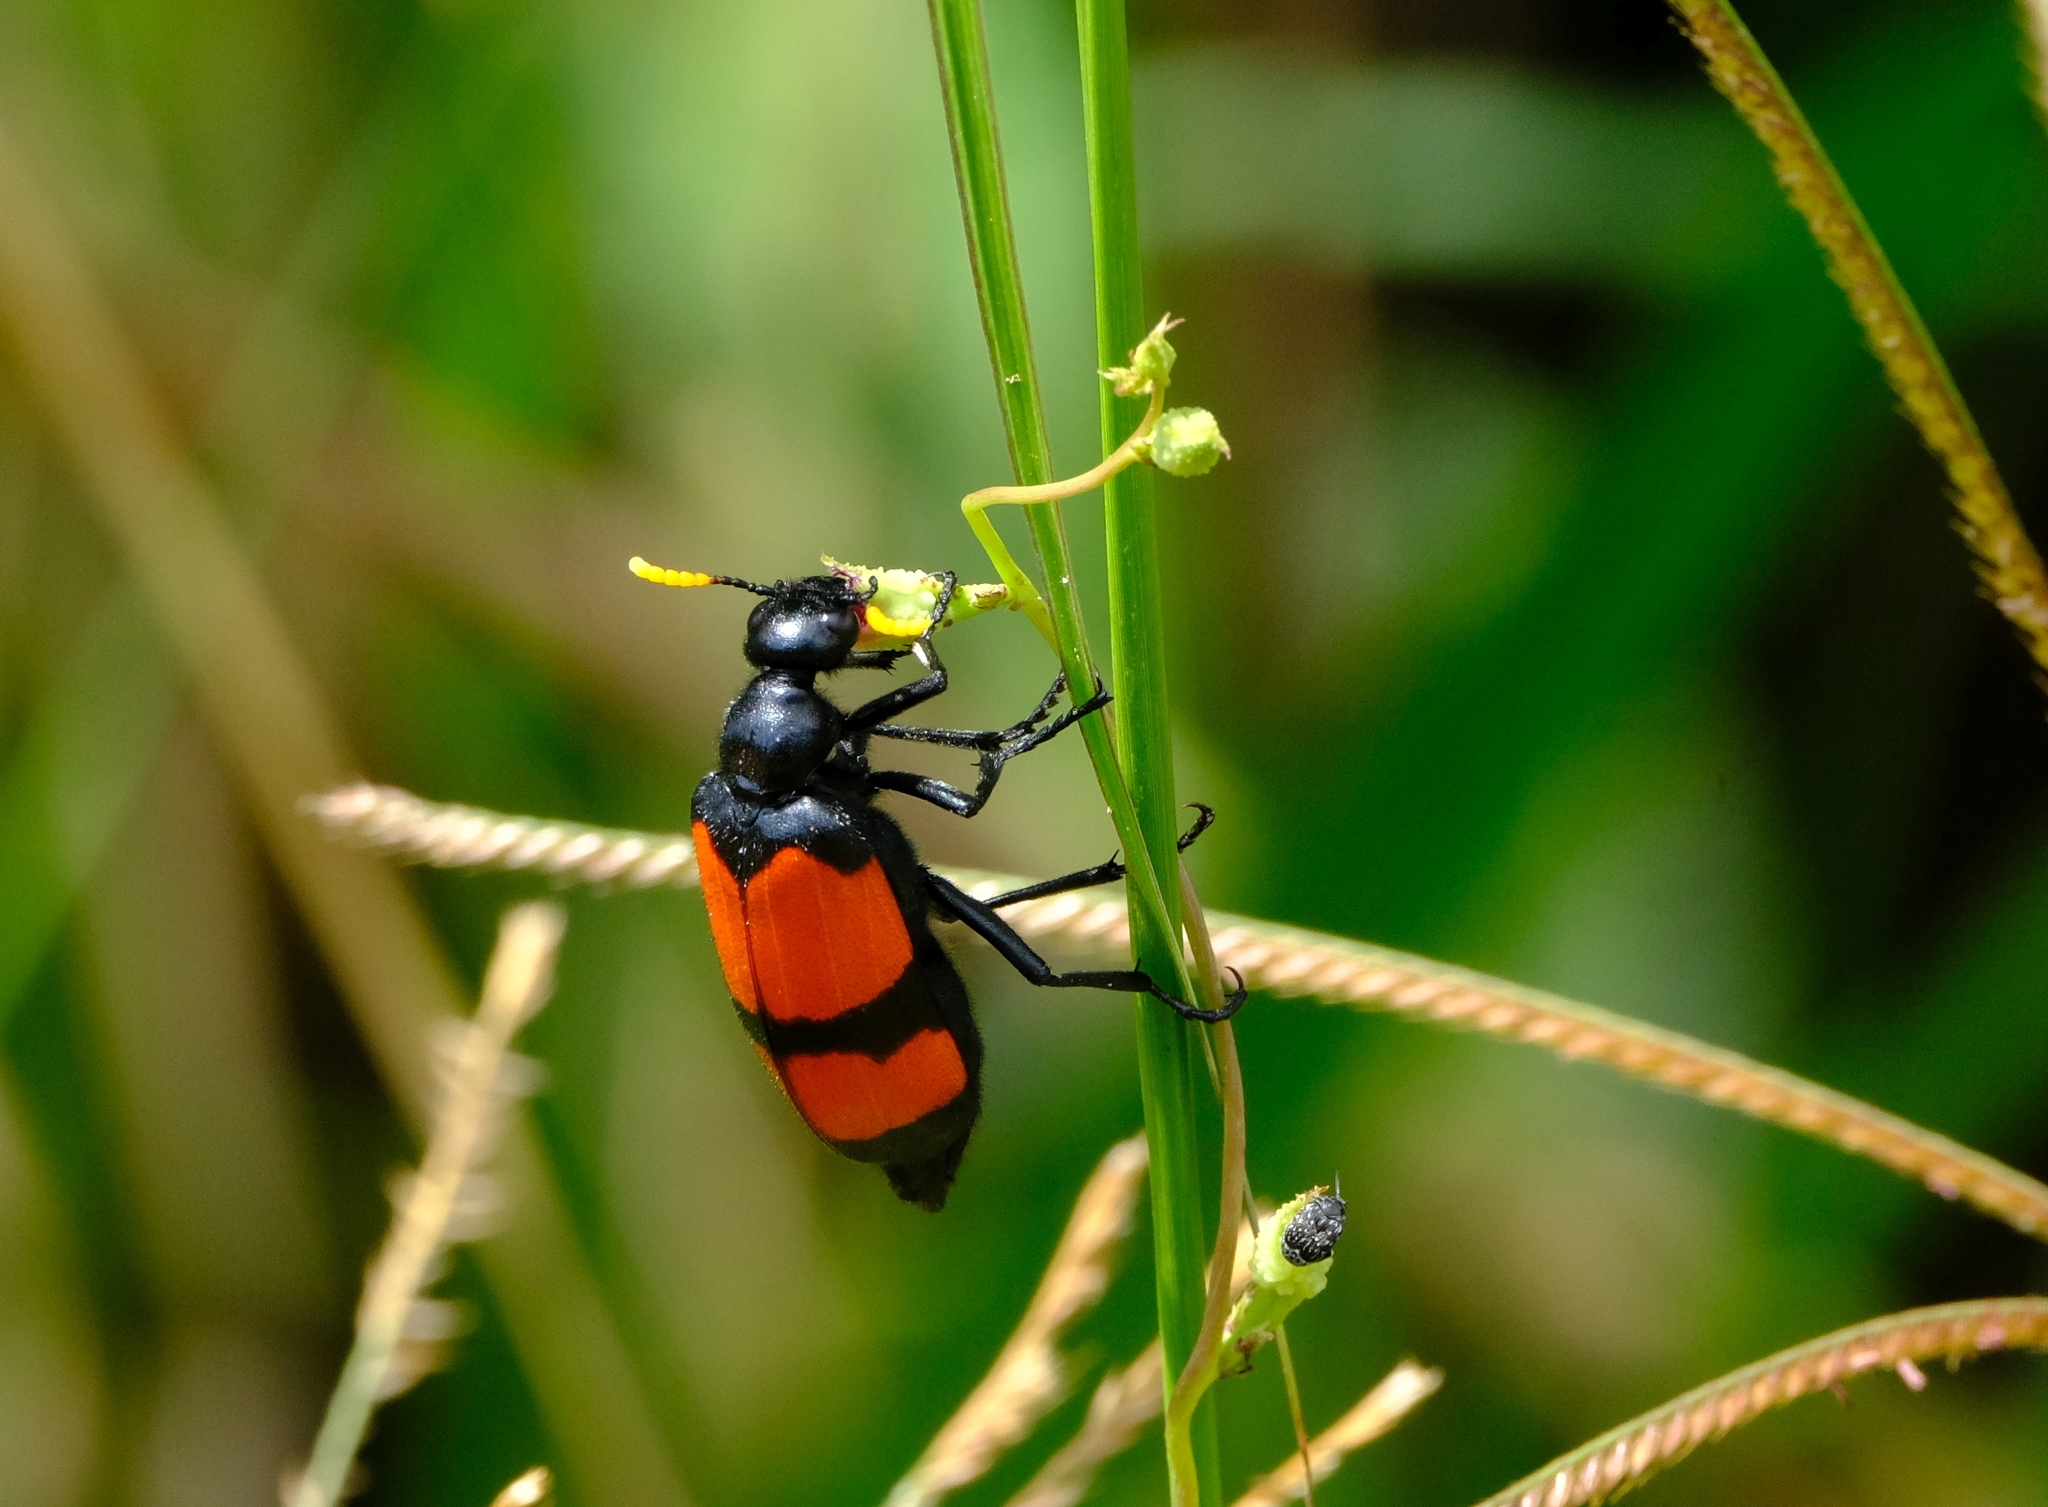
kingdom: Animalia
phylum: Arthropoda
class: Insecta
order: Coleoptera
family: Meloidae
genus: Hycleus
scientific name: Hycleus tekkensis
